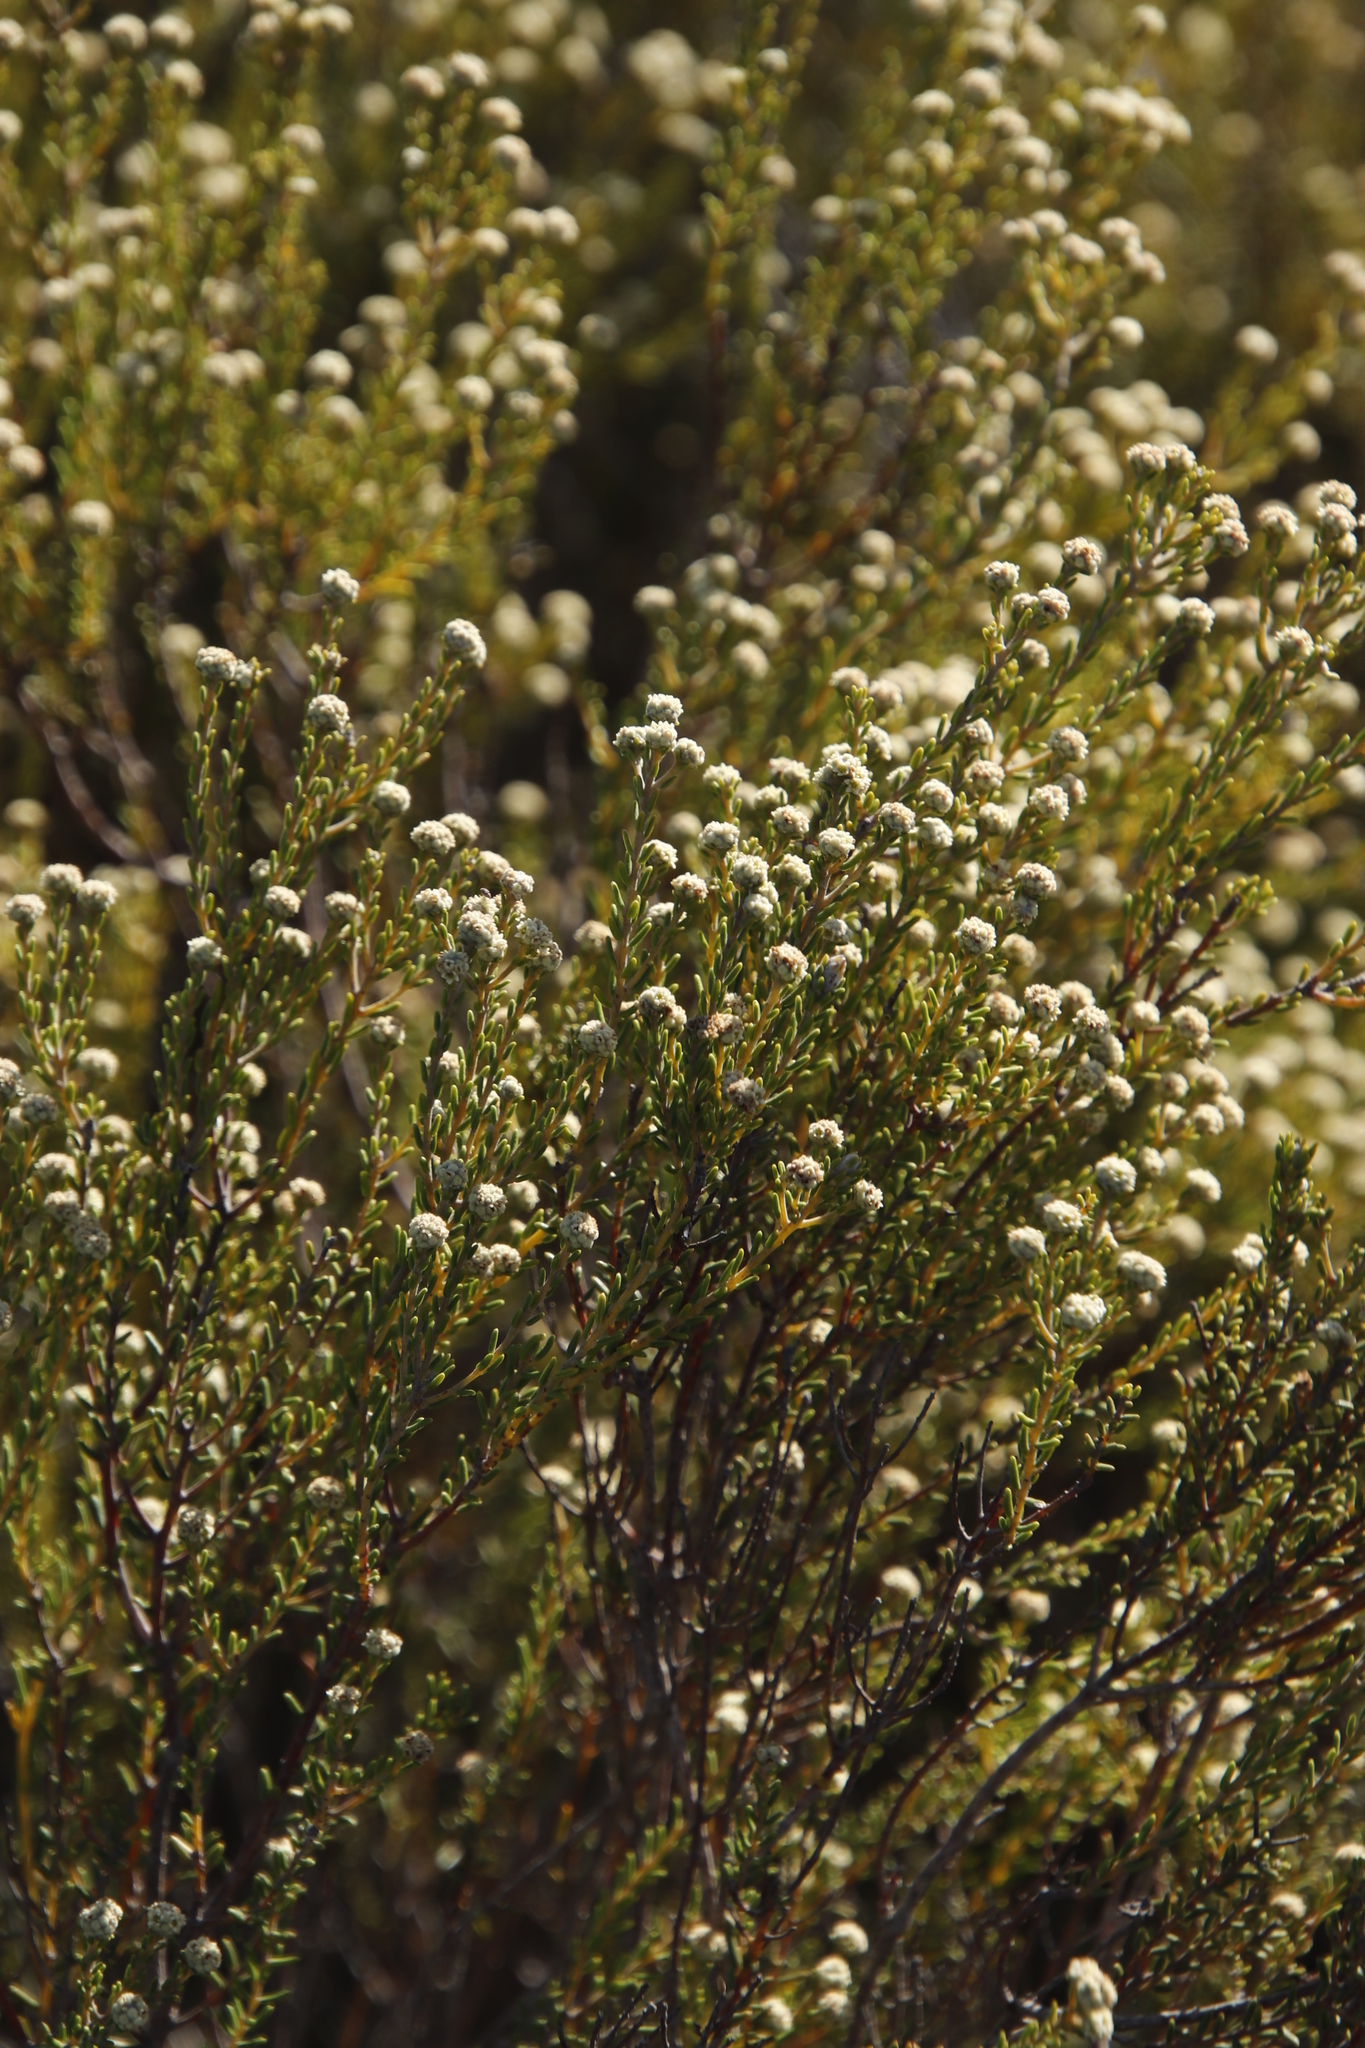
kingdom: Plantae
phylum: Tracheophyta
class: Magnoliopsida
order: Rosales
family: Rhamnaceae
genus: Phylica
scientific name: Phylica cephalantha
